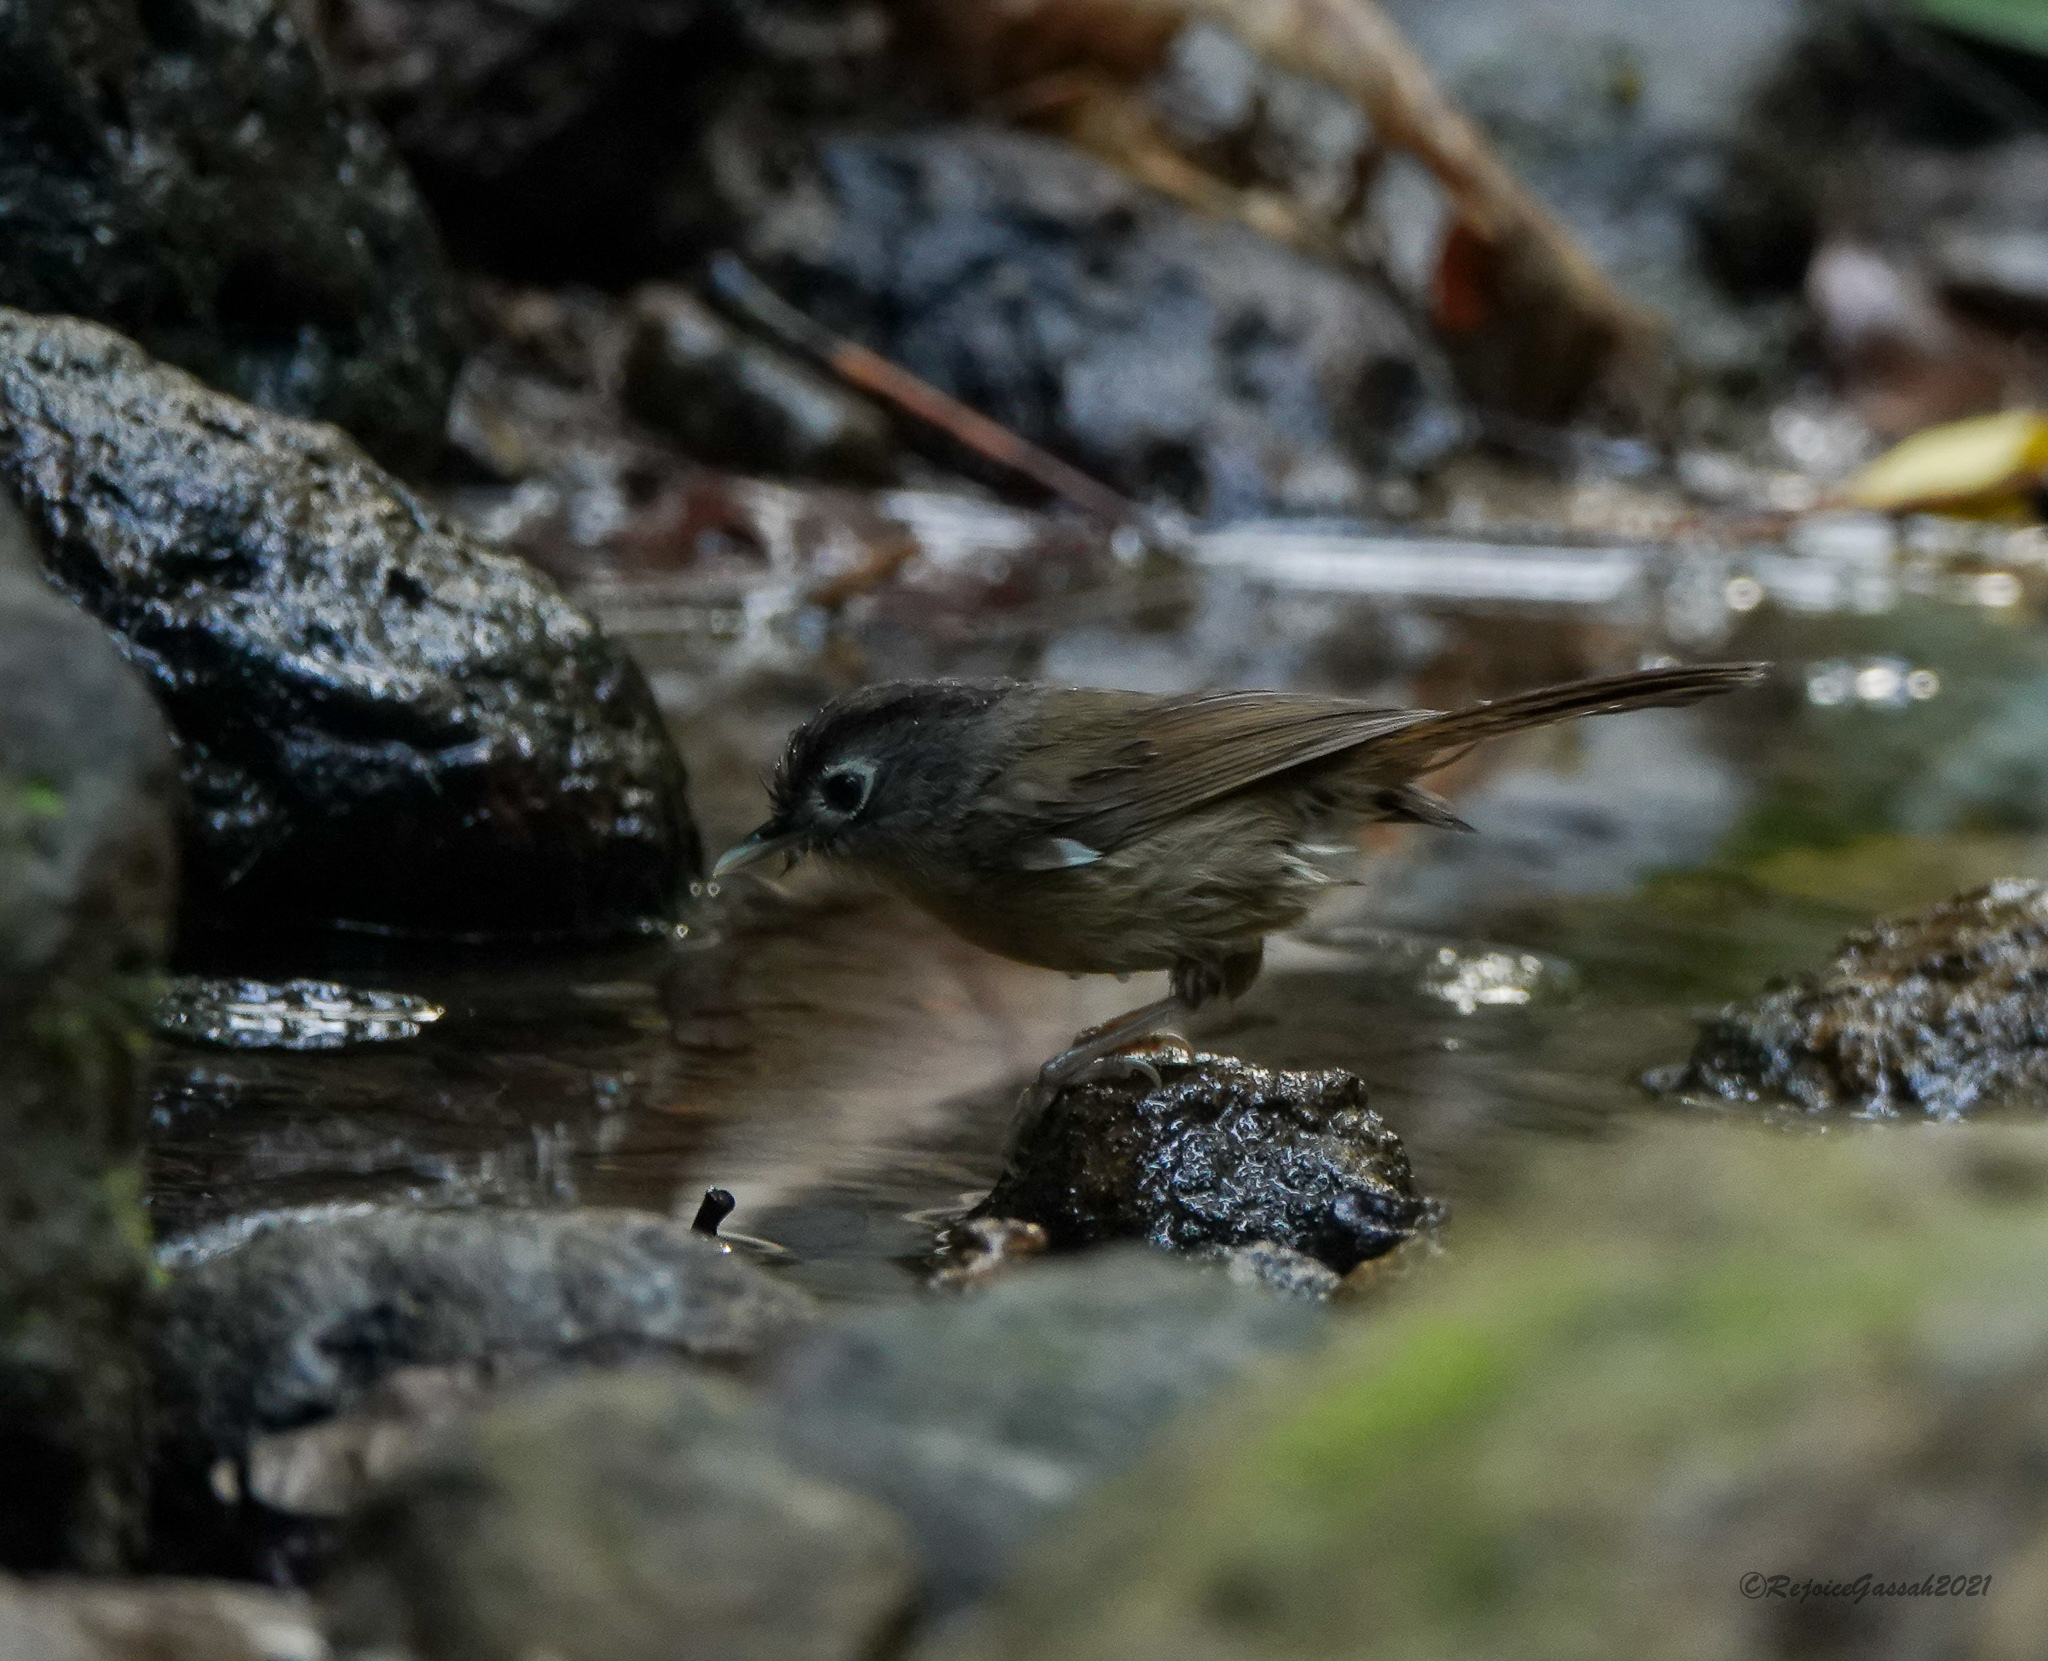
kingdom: Animalia
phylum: Chordata
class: Aves
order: Passeriformes
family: Pellorneidae
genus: Alcippe
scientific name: Alcippe nipalensis
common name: Nepal fulvetta
